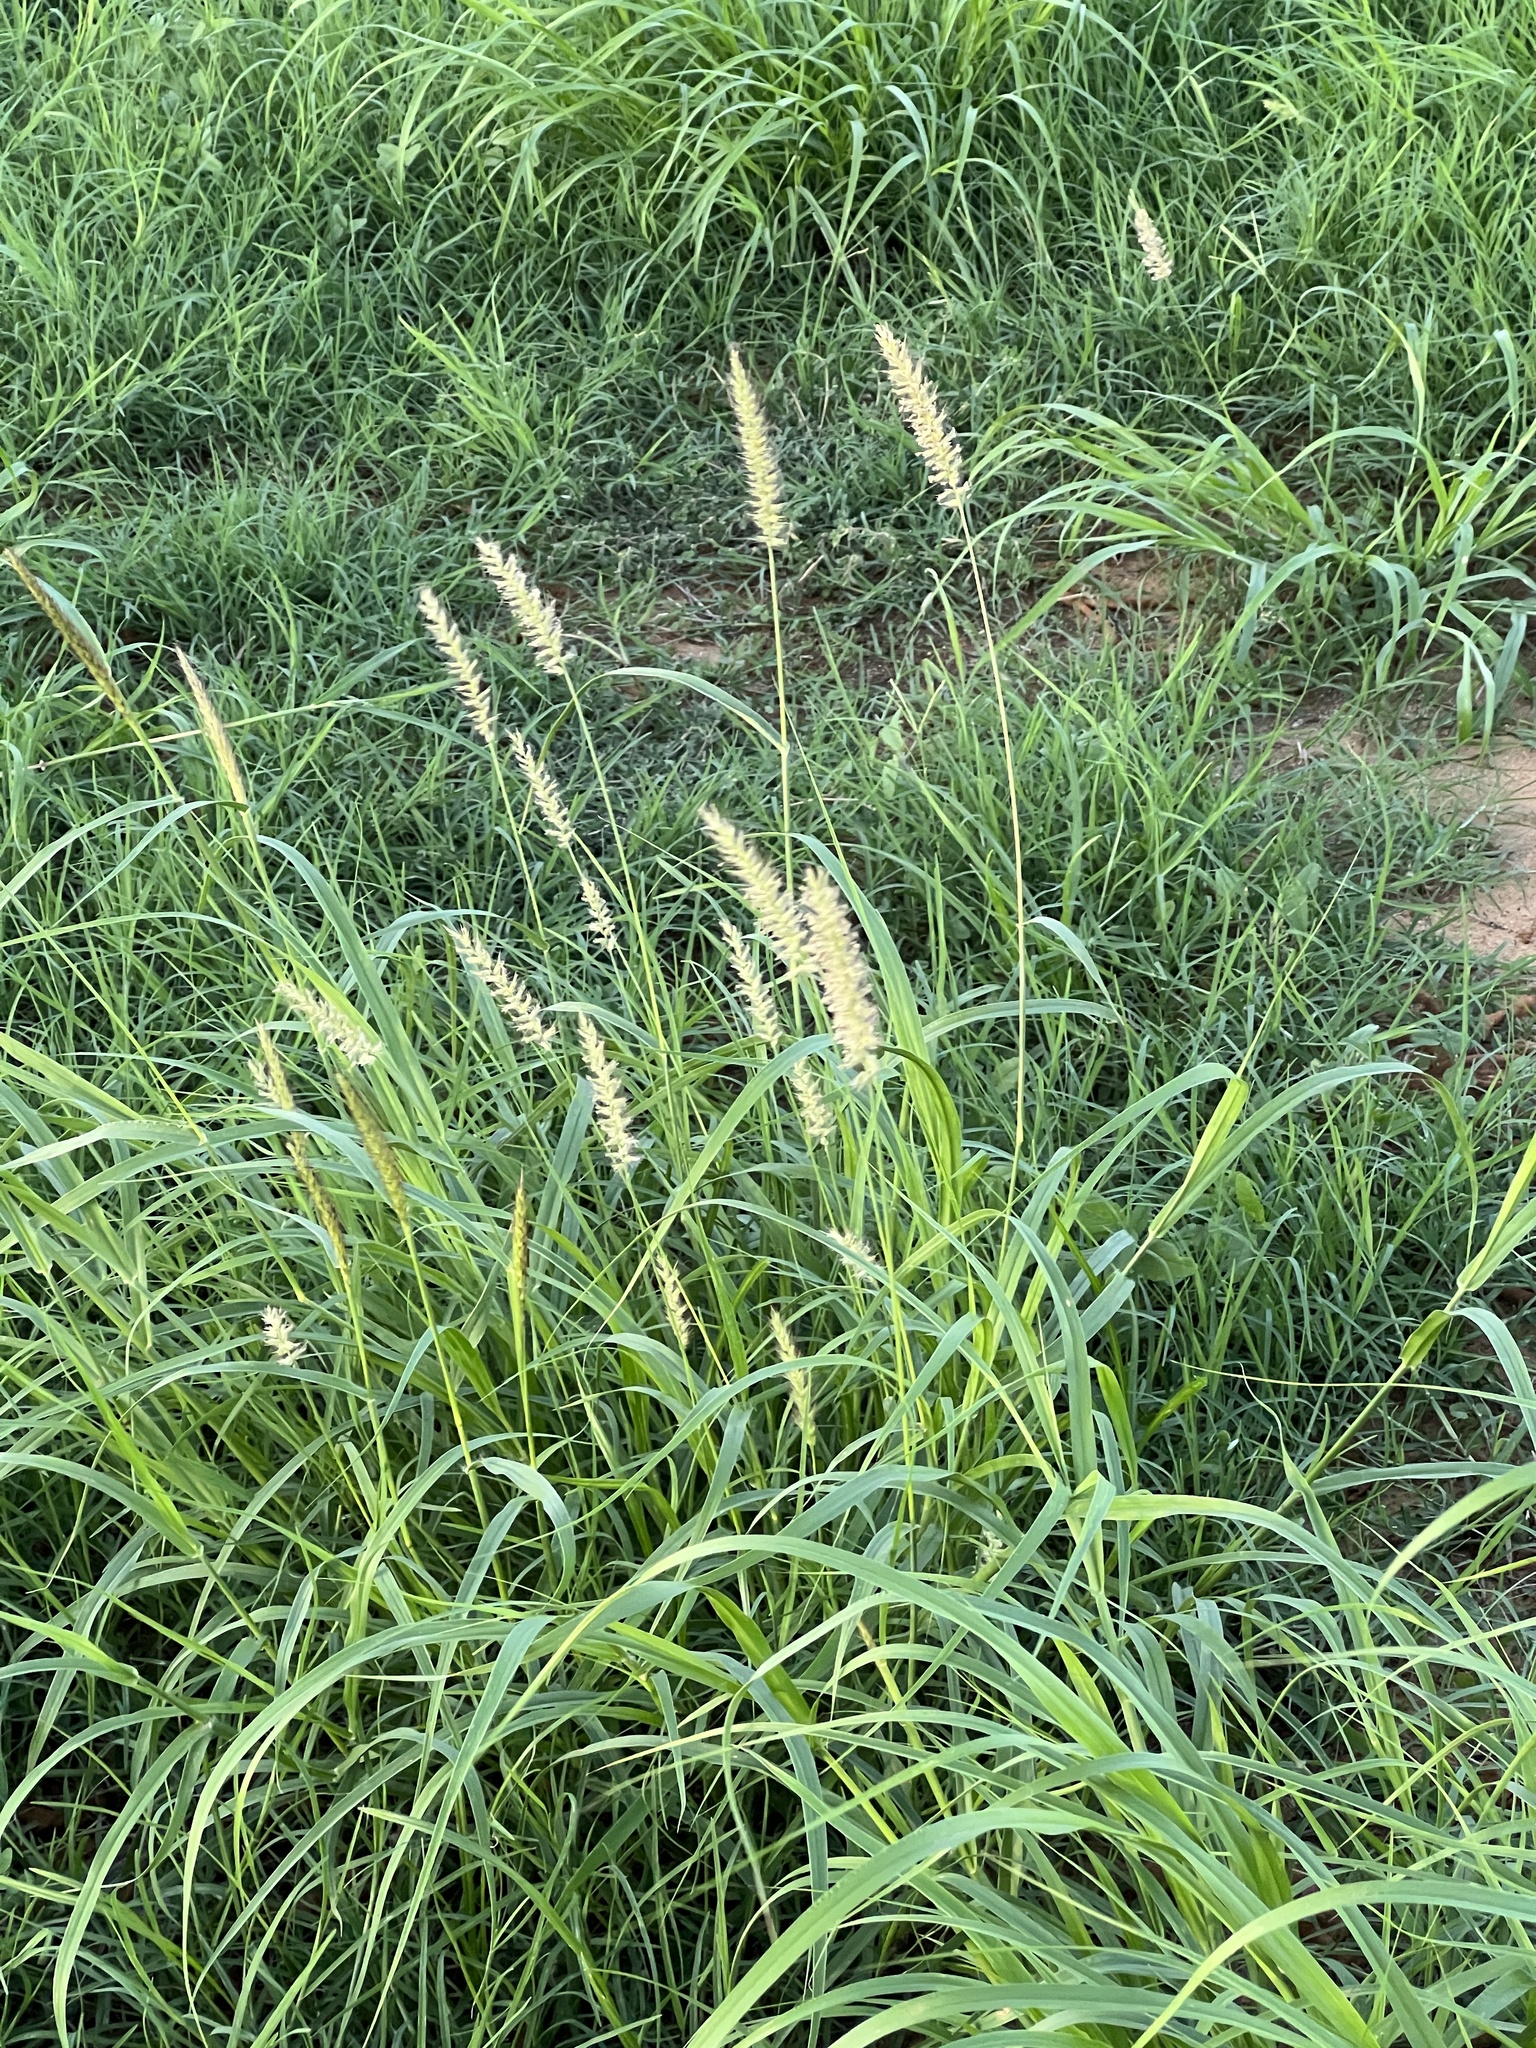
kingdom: Plantae
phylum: Tracheophyta
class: Liliopsida
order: Poales
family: Poaceae
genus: Cenchrus
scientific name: Cenchrus ciliaris
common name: Buffelgrass
